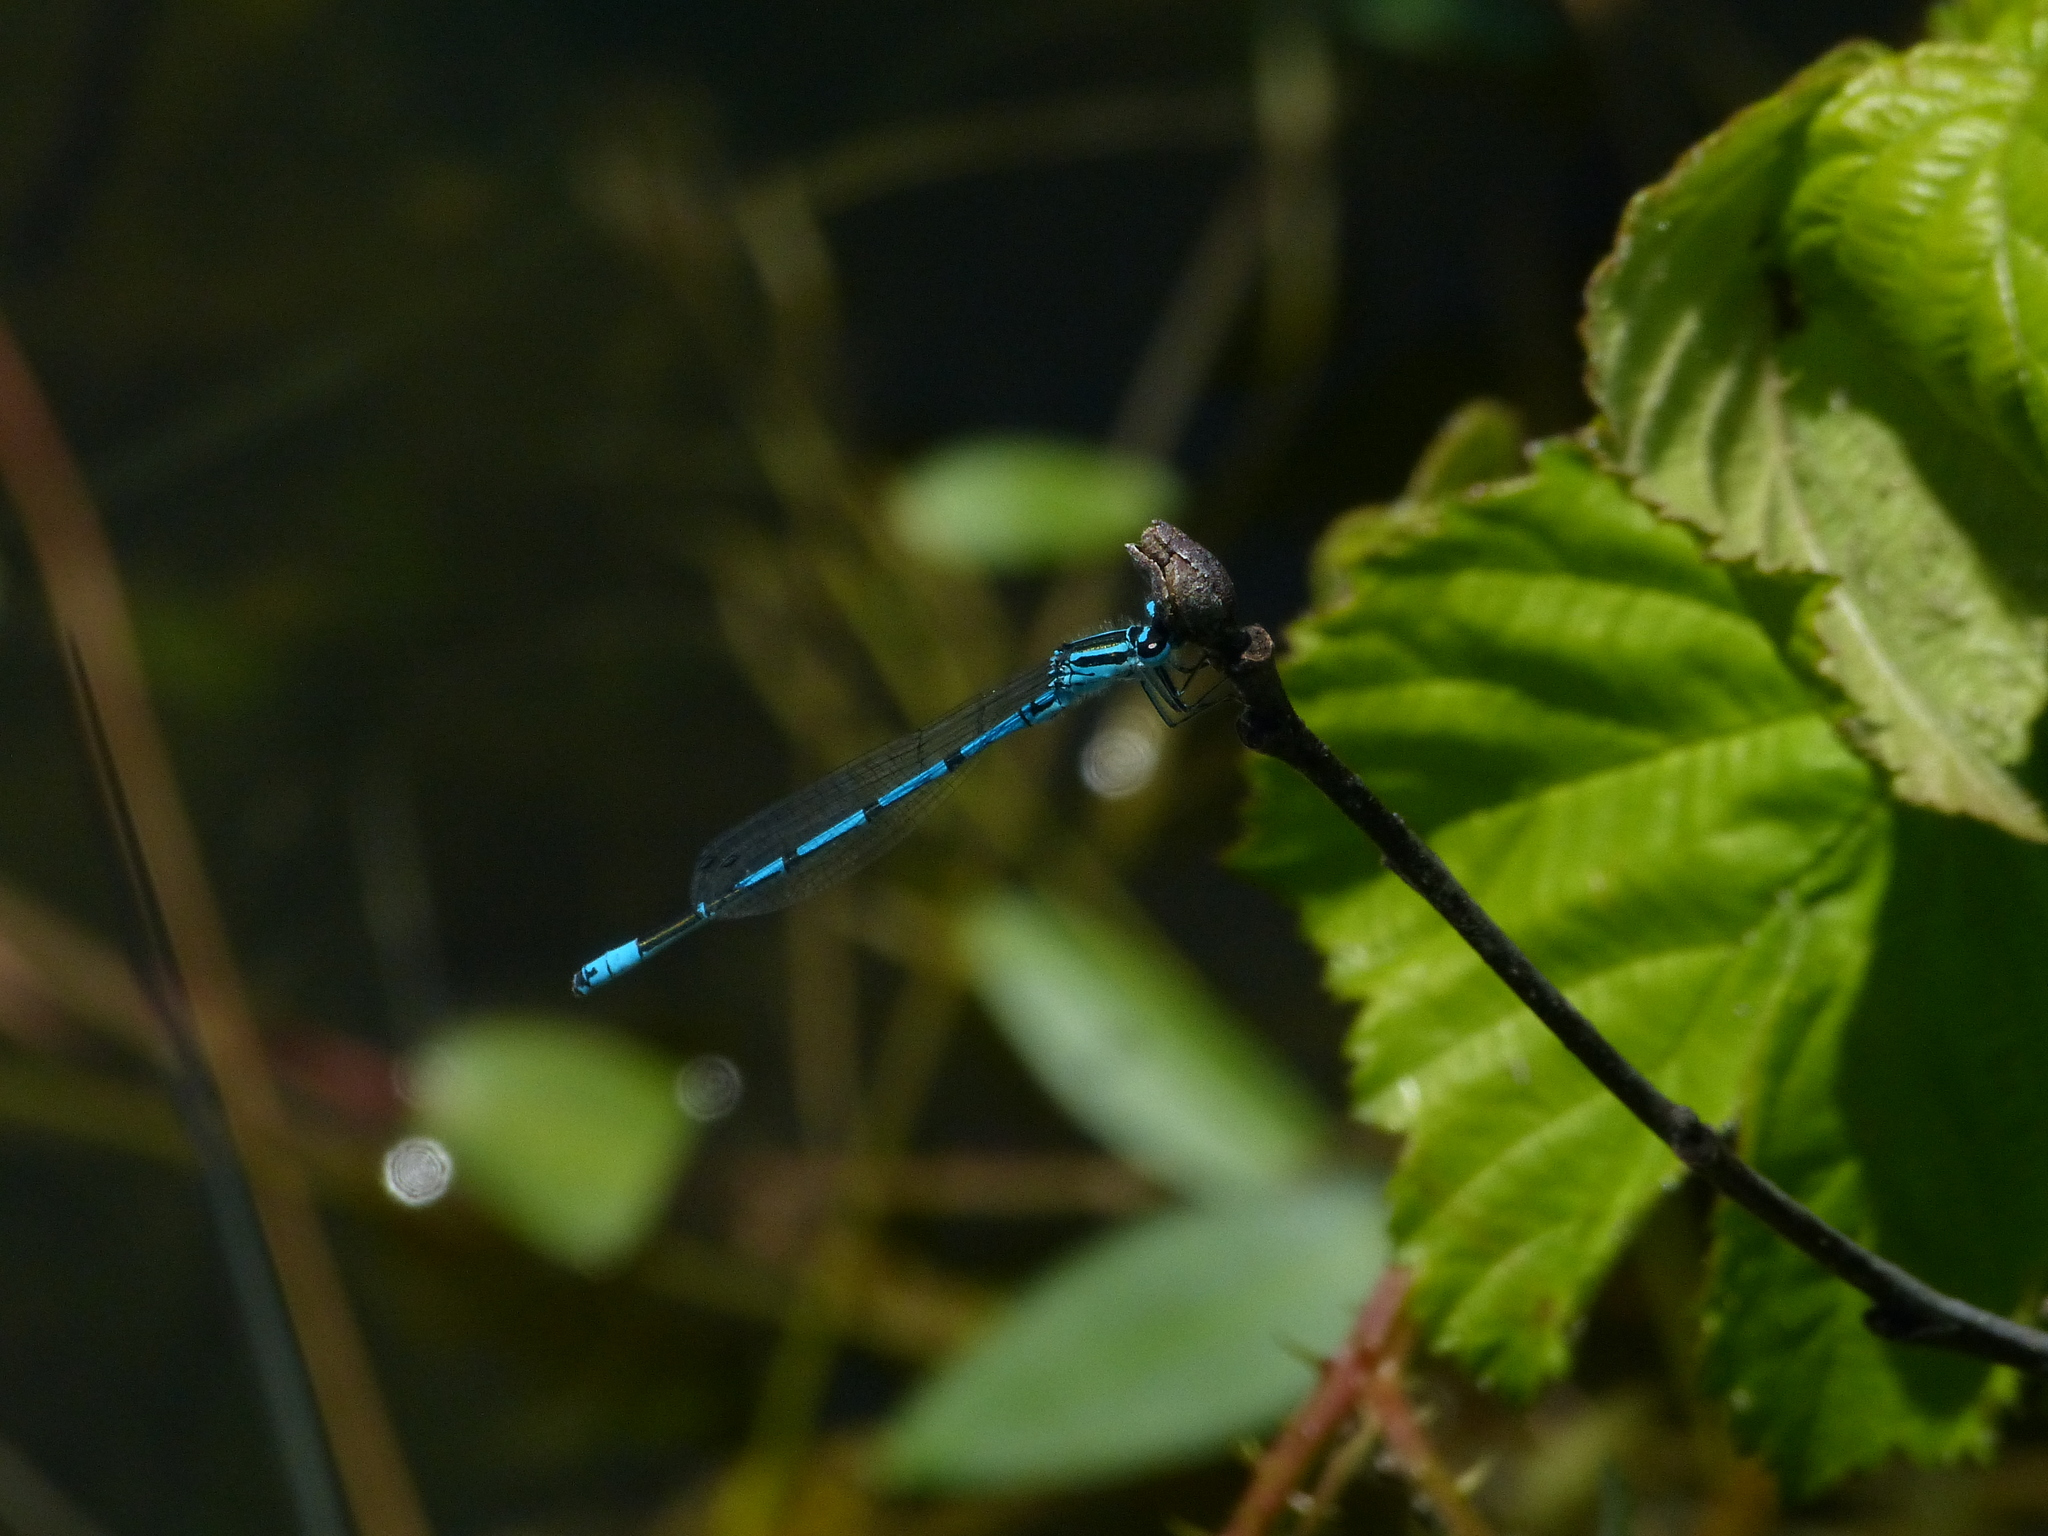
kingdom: Animalia
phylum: Arthropoda
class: Insecta
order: Odonata
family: Coenagrionidae
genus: Coenagrion
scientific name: Coenagrion puella
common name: Azure damselfly
